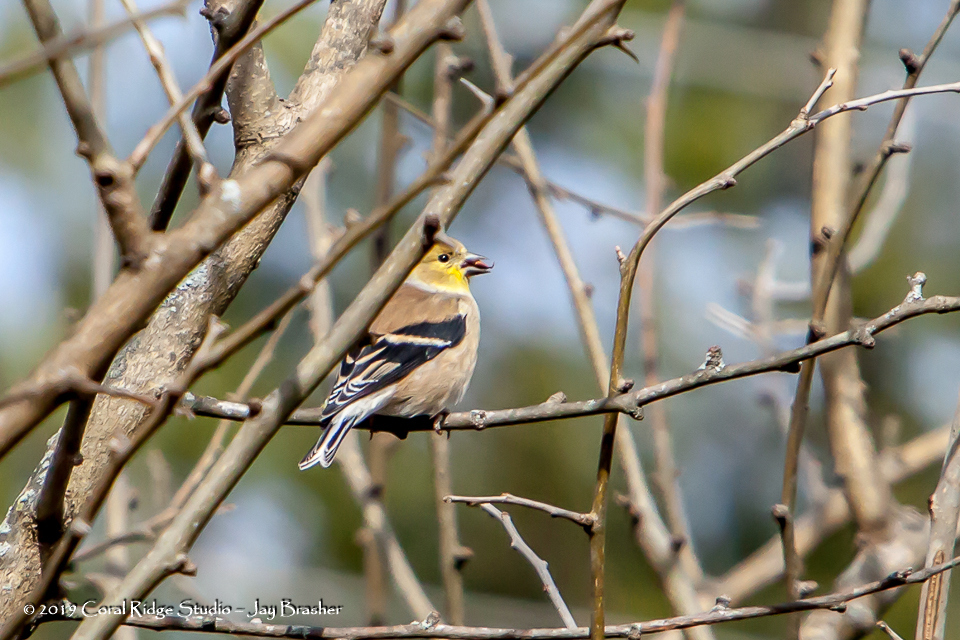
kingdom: Animalia
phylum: Chordata
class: Aves
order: Passeriformes
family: Fringillidae
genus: Spinus
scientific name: Spinus tristis
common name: American goldfinch
